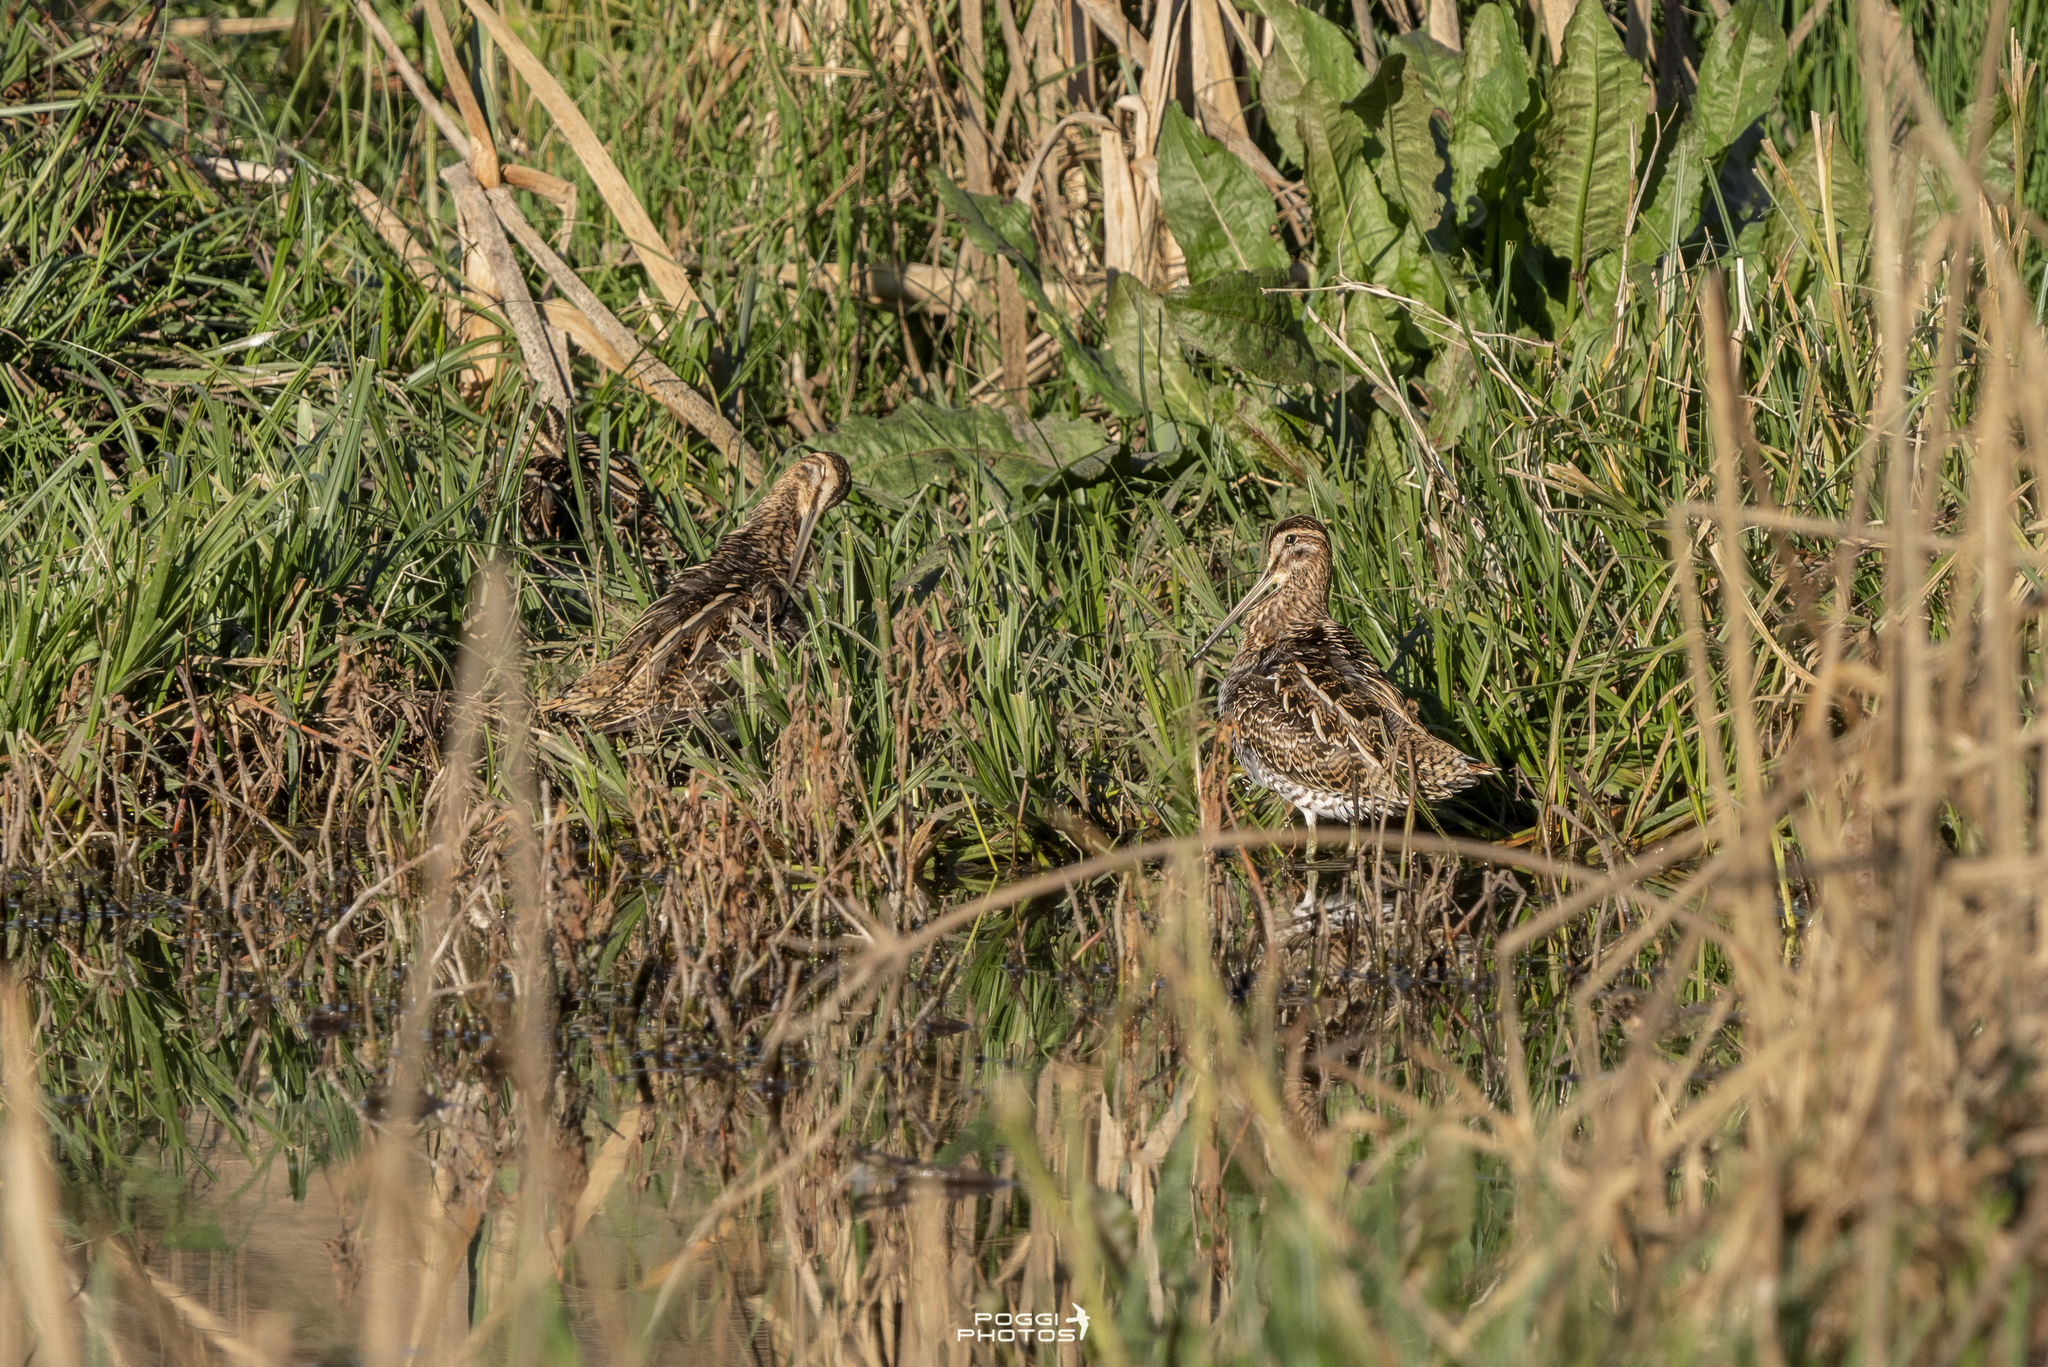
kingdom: Animalia
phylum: Chordata
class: Aves
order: Charadriiformes
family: Scolopacidae
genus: Gallinago
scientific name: Gallinago gallinago
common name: Common snipe
